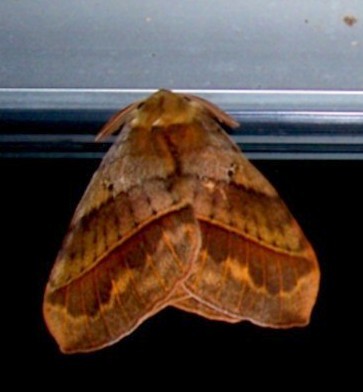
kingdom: Animalia
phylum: Arthropoda
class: Insecta
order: Lepidoptera
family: Eupterotidae
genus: Jana
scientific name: Jana eurymas
